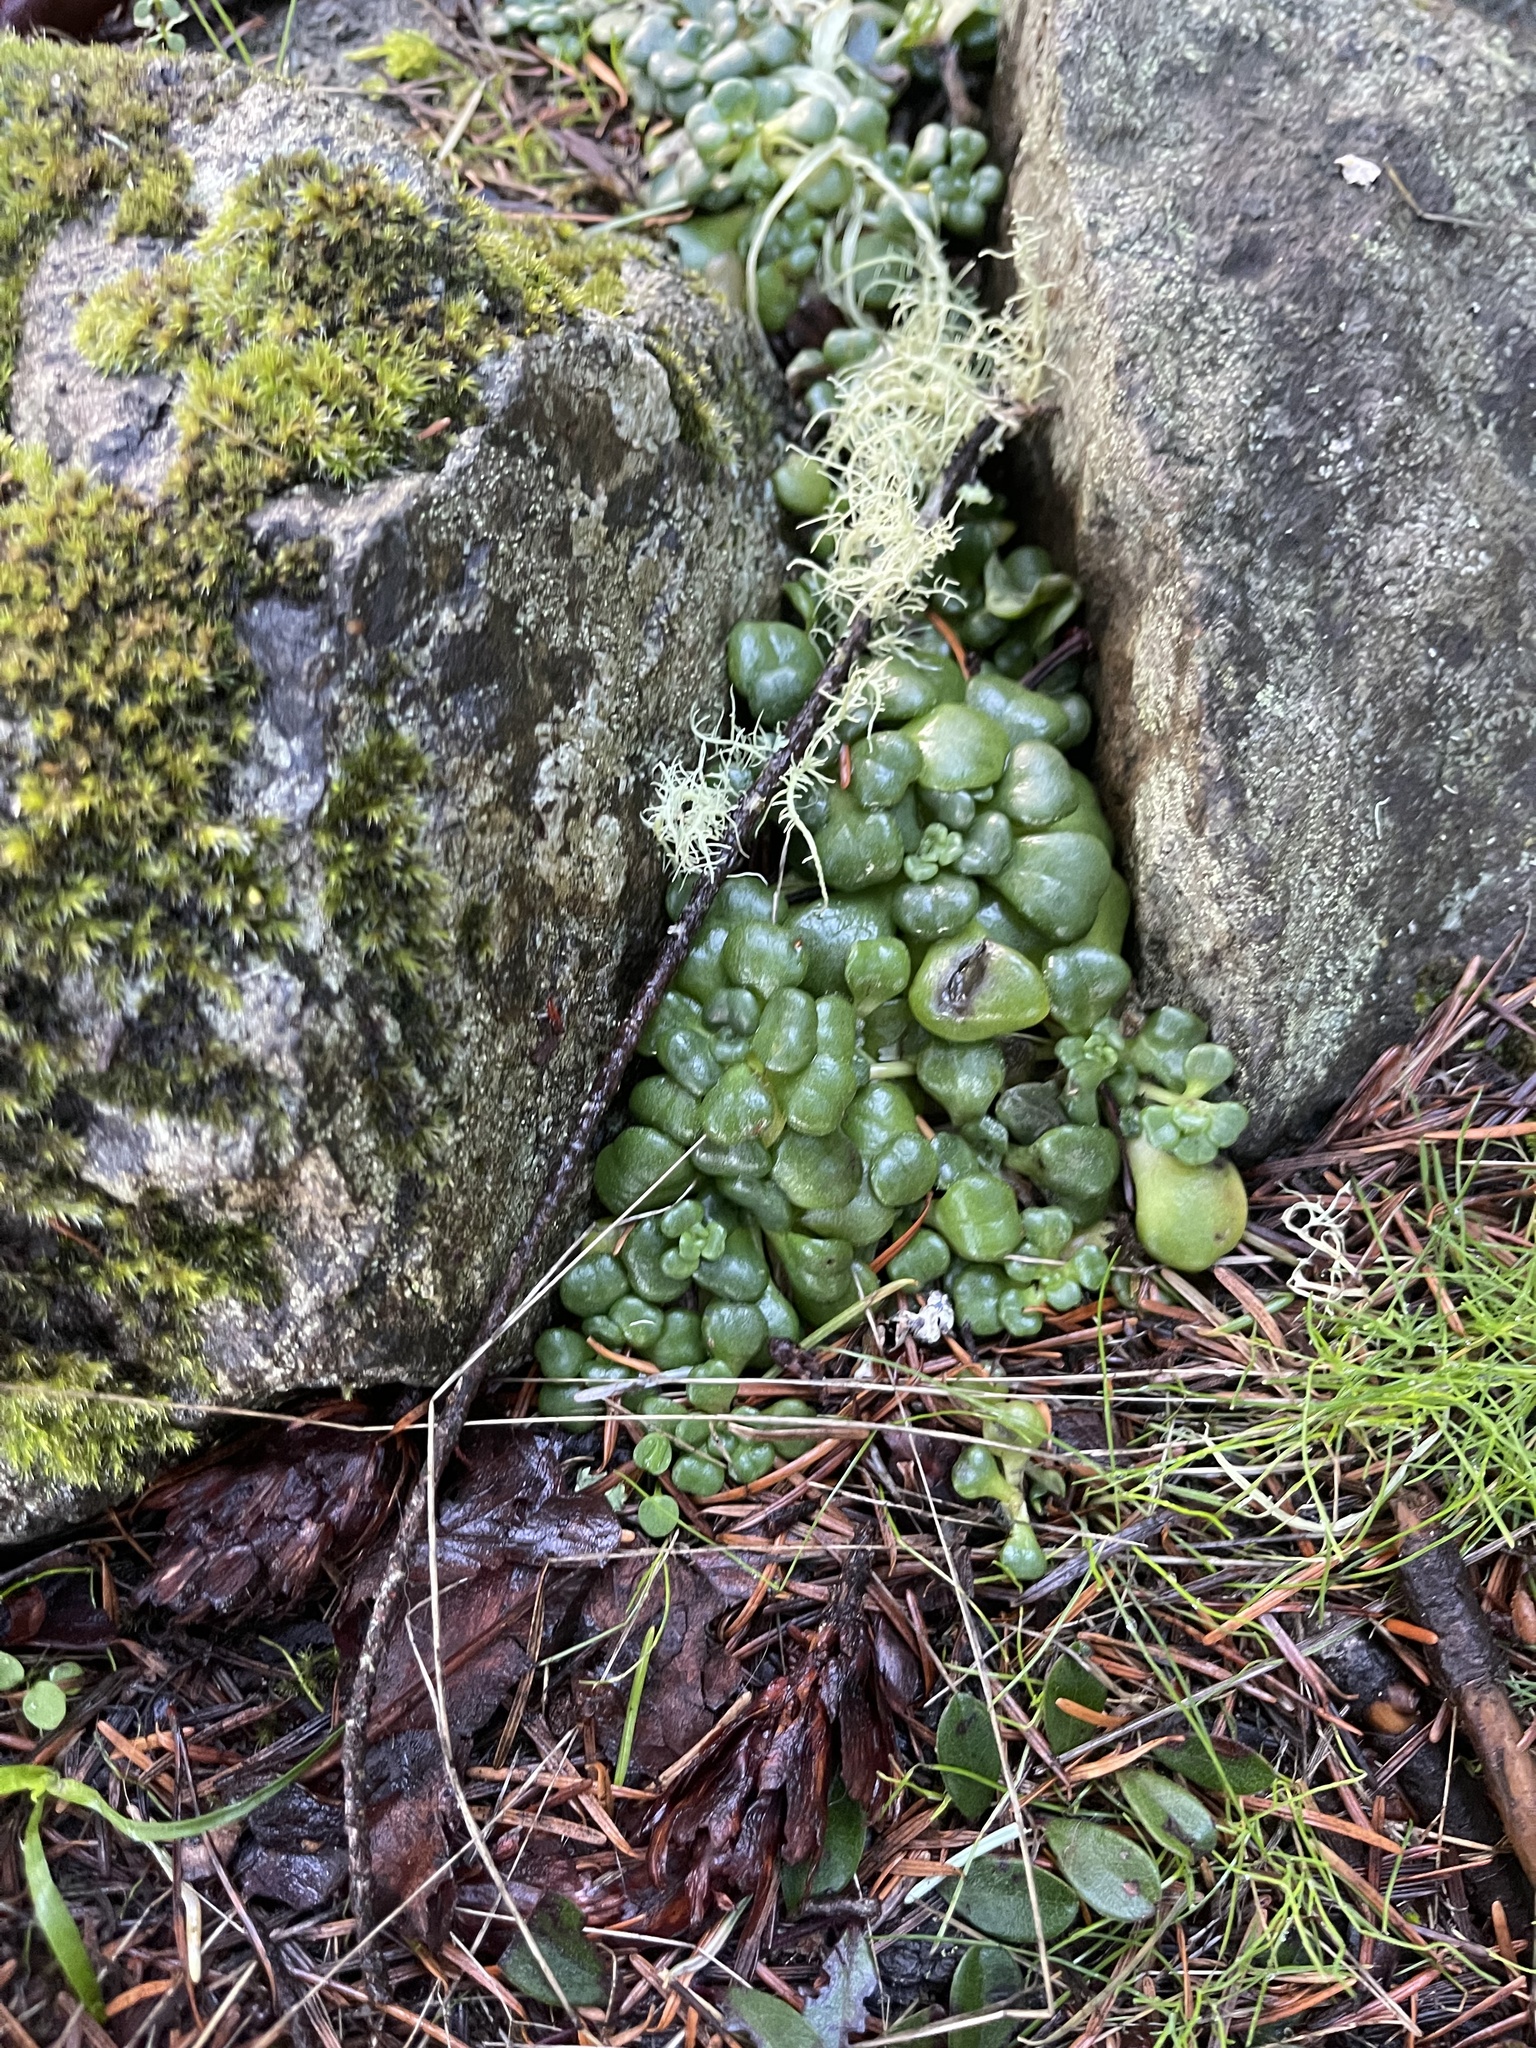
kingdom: Plantae
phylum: Tracheophyta
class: Magnoliopsida
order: Saxifragales
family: Crassulaceae
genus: Sedum
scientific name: Sedum spathulifolium
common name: Colorado stonecrop
